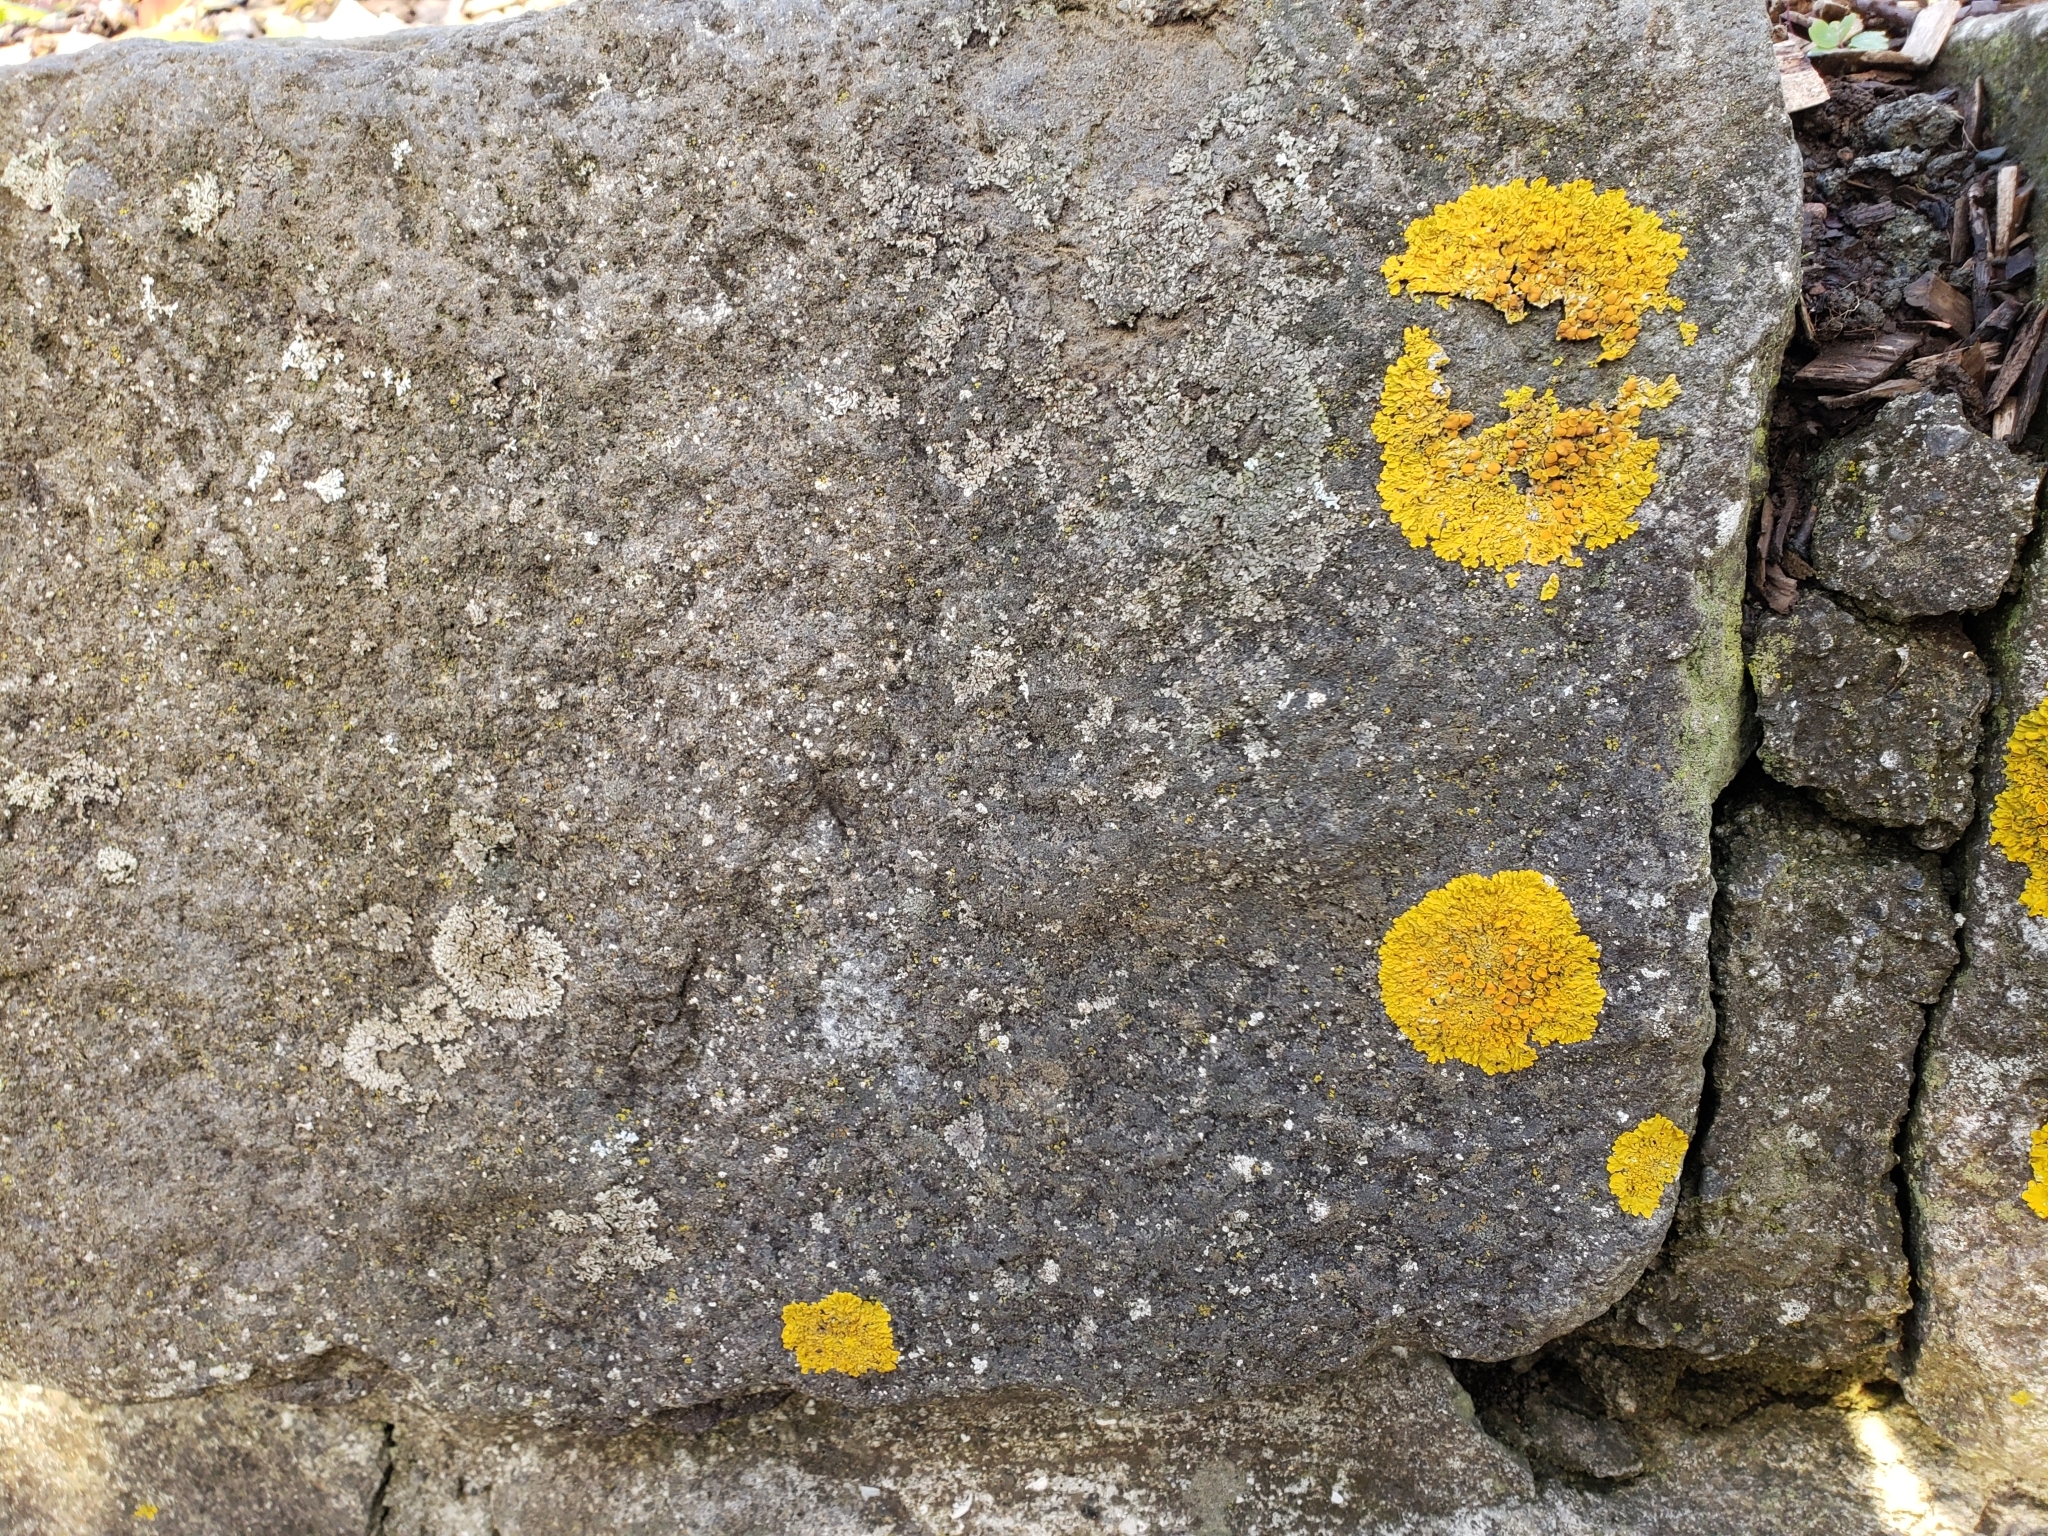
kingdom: Fungi
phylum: Ascomycota
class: Lecanoromycetes
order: Teloschistales
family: Teloschistaceae
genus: Xanthoria
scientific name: Xanthoria parietina
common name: Common orange lichen
